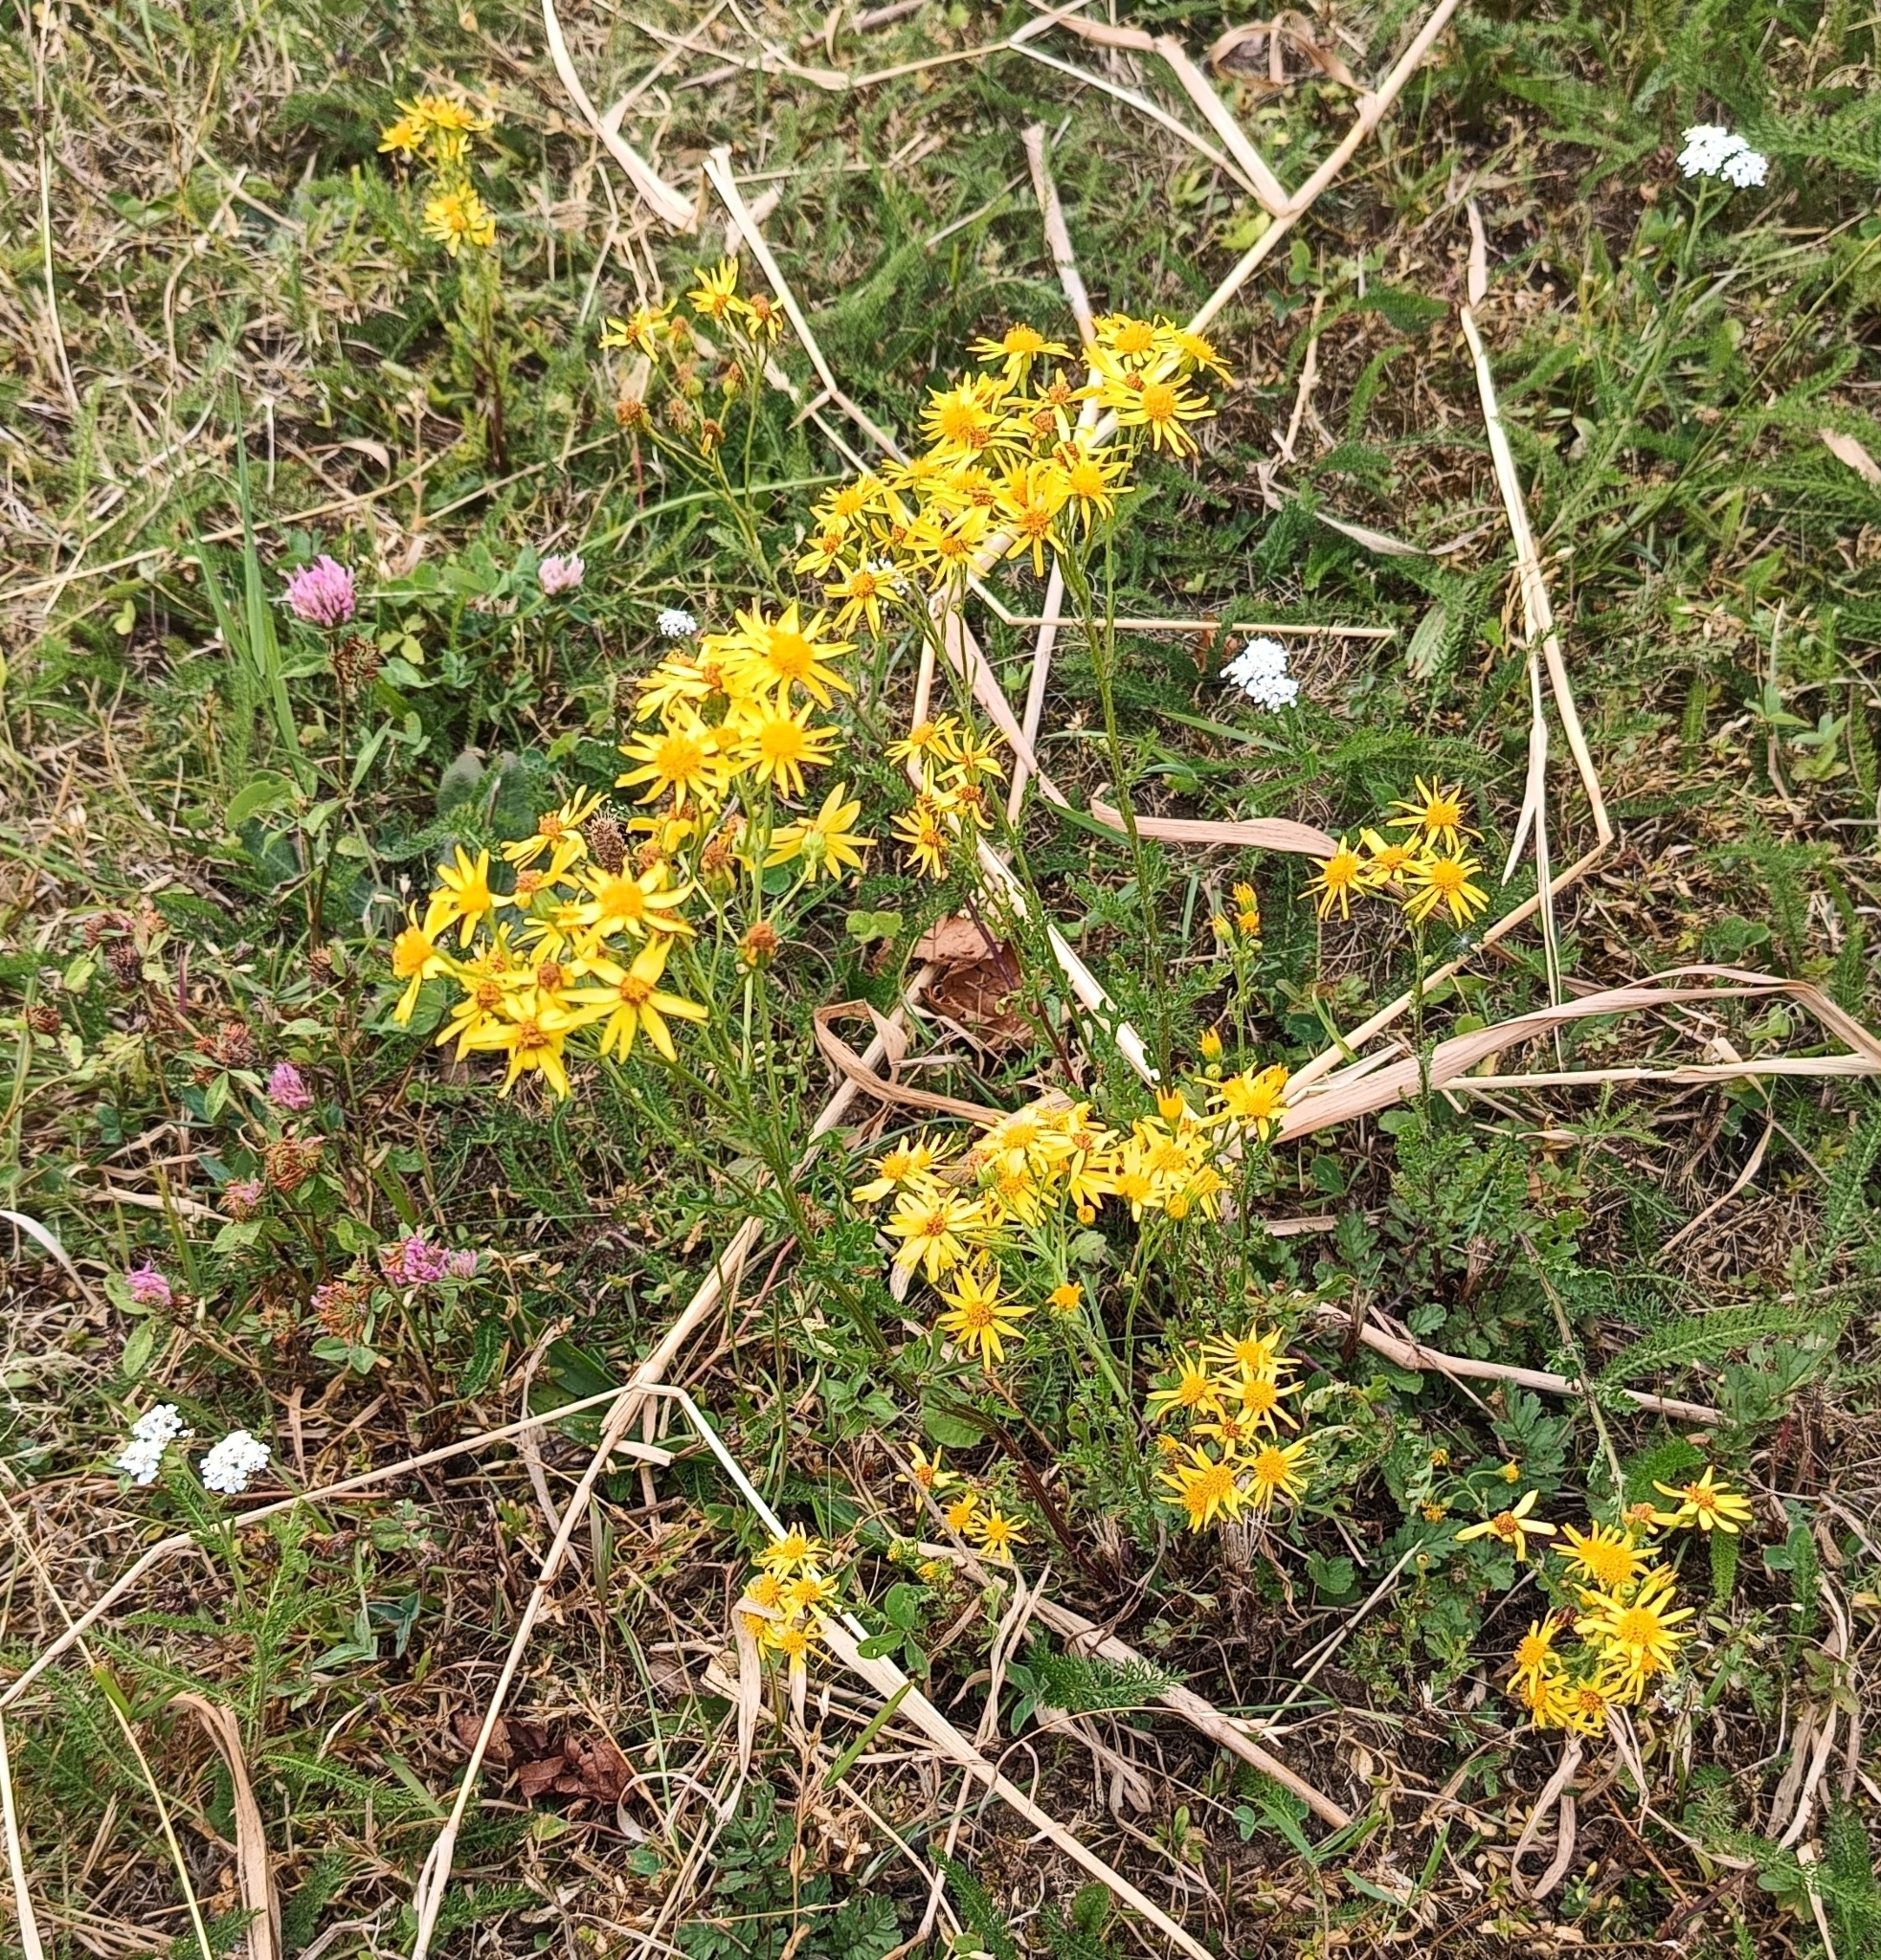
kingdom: Plantae
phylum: Tracheophyta
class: Magnoliopsida
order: Asterales
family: Asteraceae
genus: Jacobaea
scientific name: Jacobaea vulgaris
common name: Stinking willie
